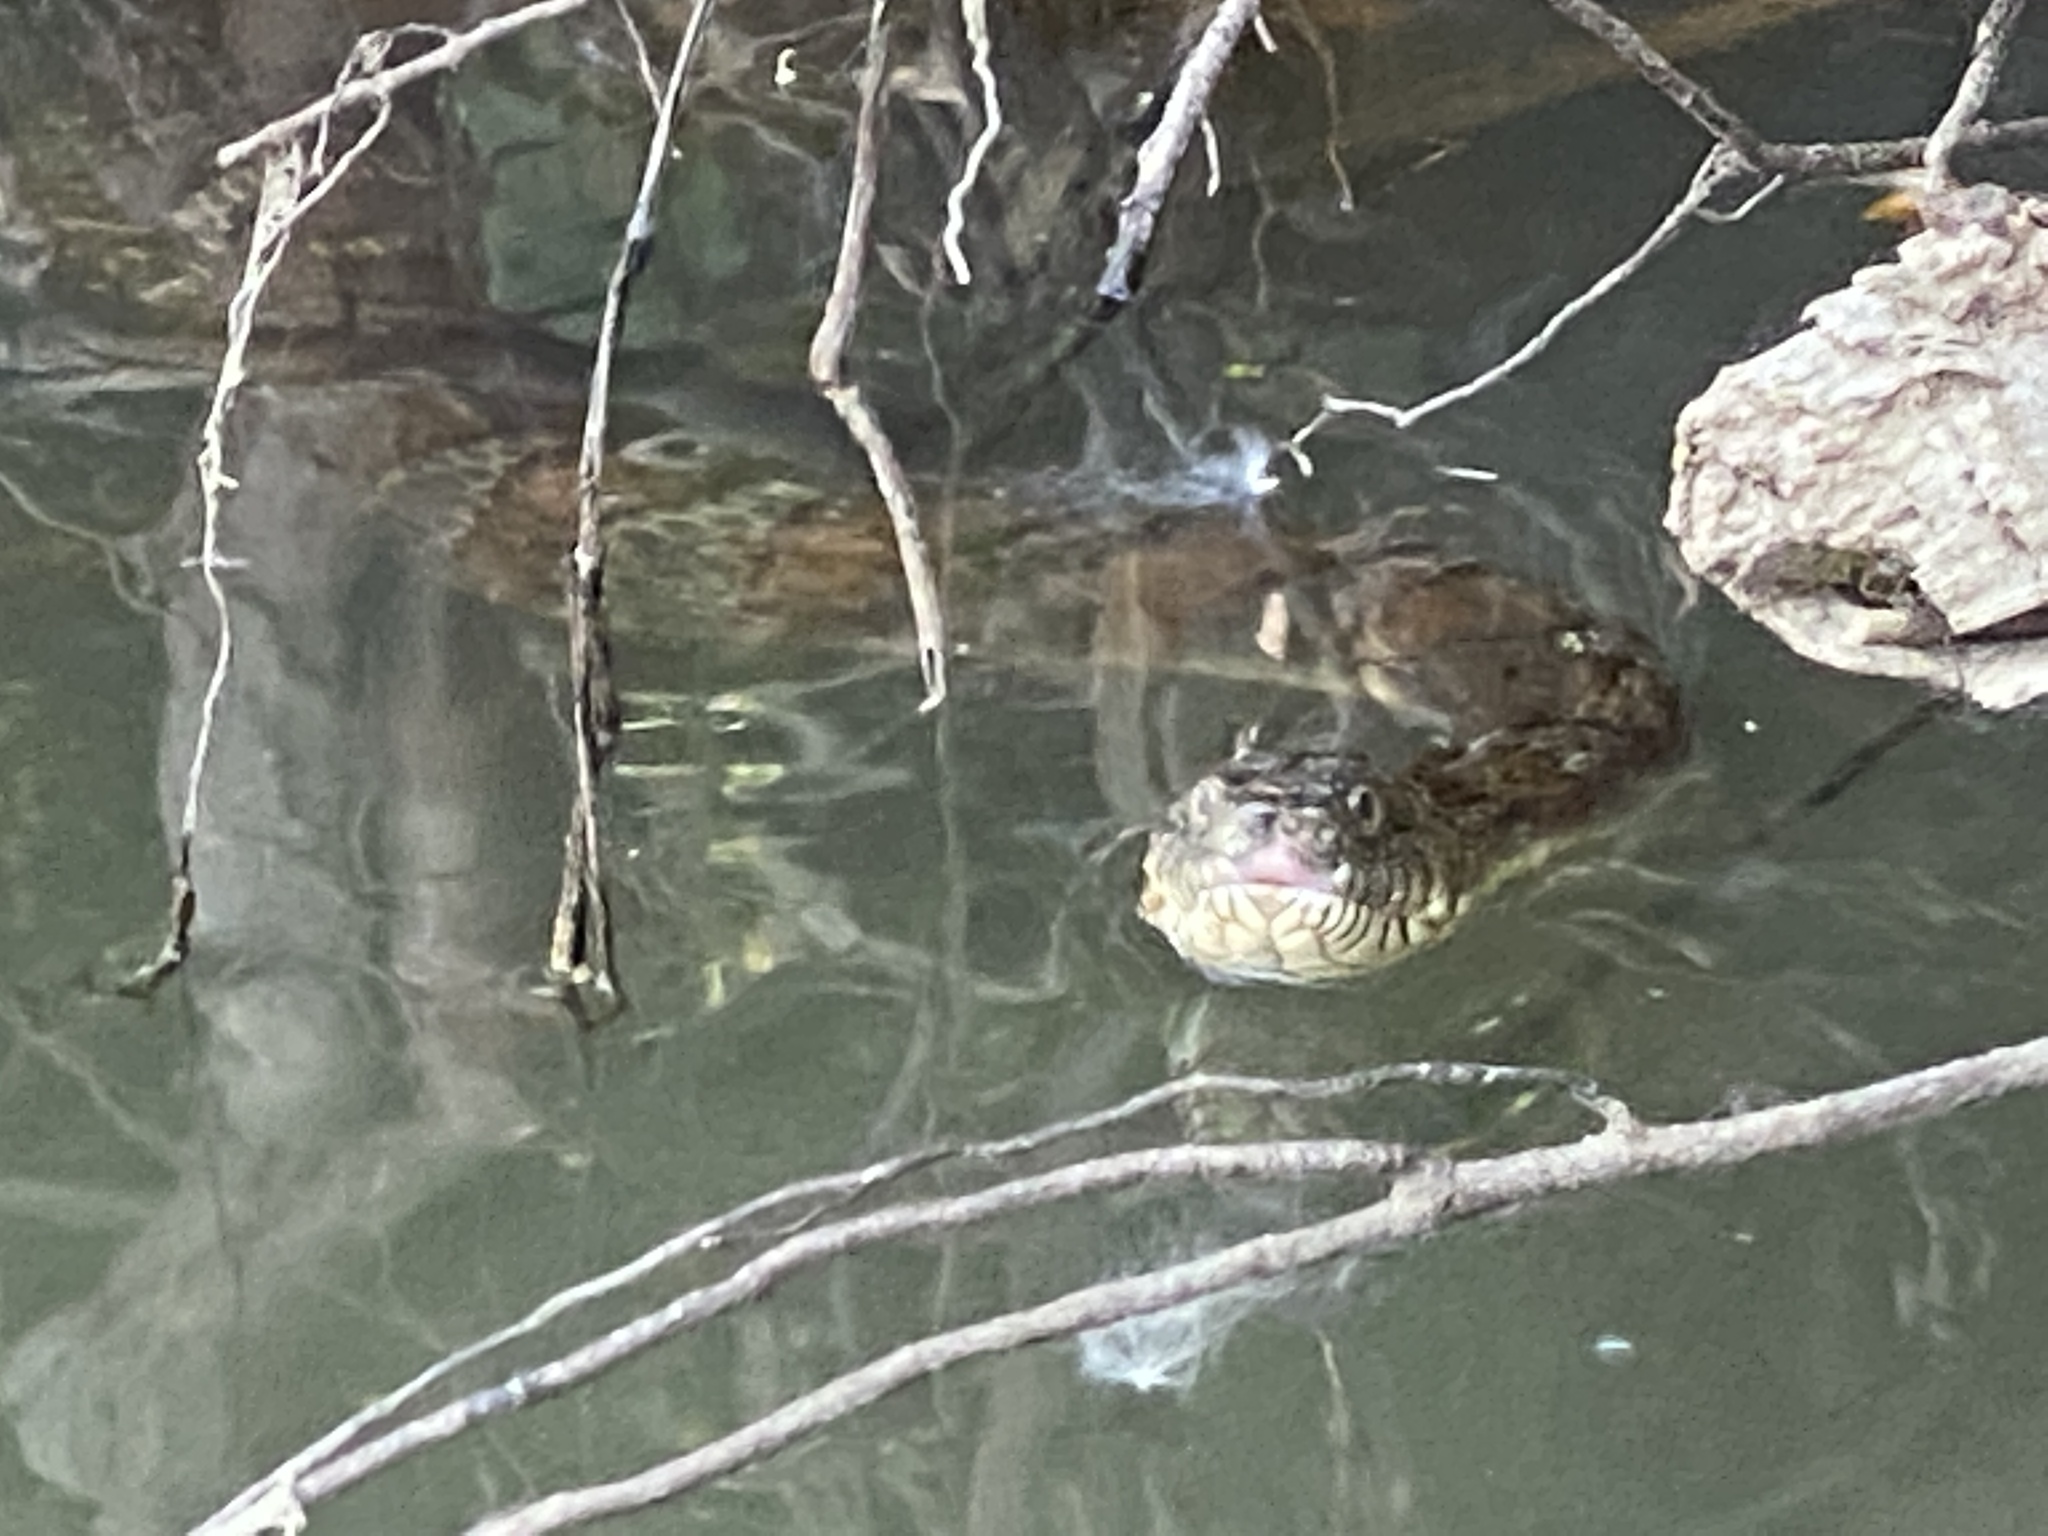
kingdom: Animalia
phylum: Chordata
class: Squamata
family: Colubridae
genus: Nerodia
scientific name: Nerodia sipedon
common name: Northern water snake
